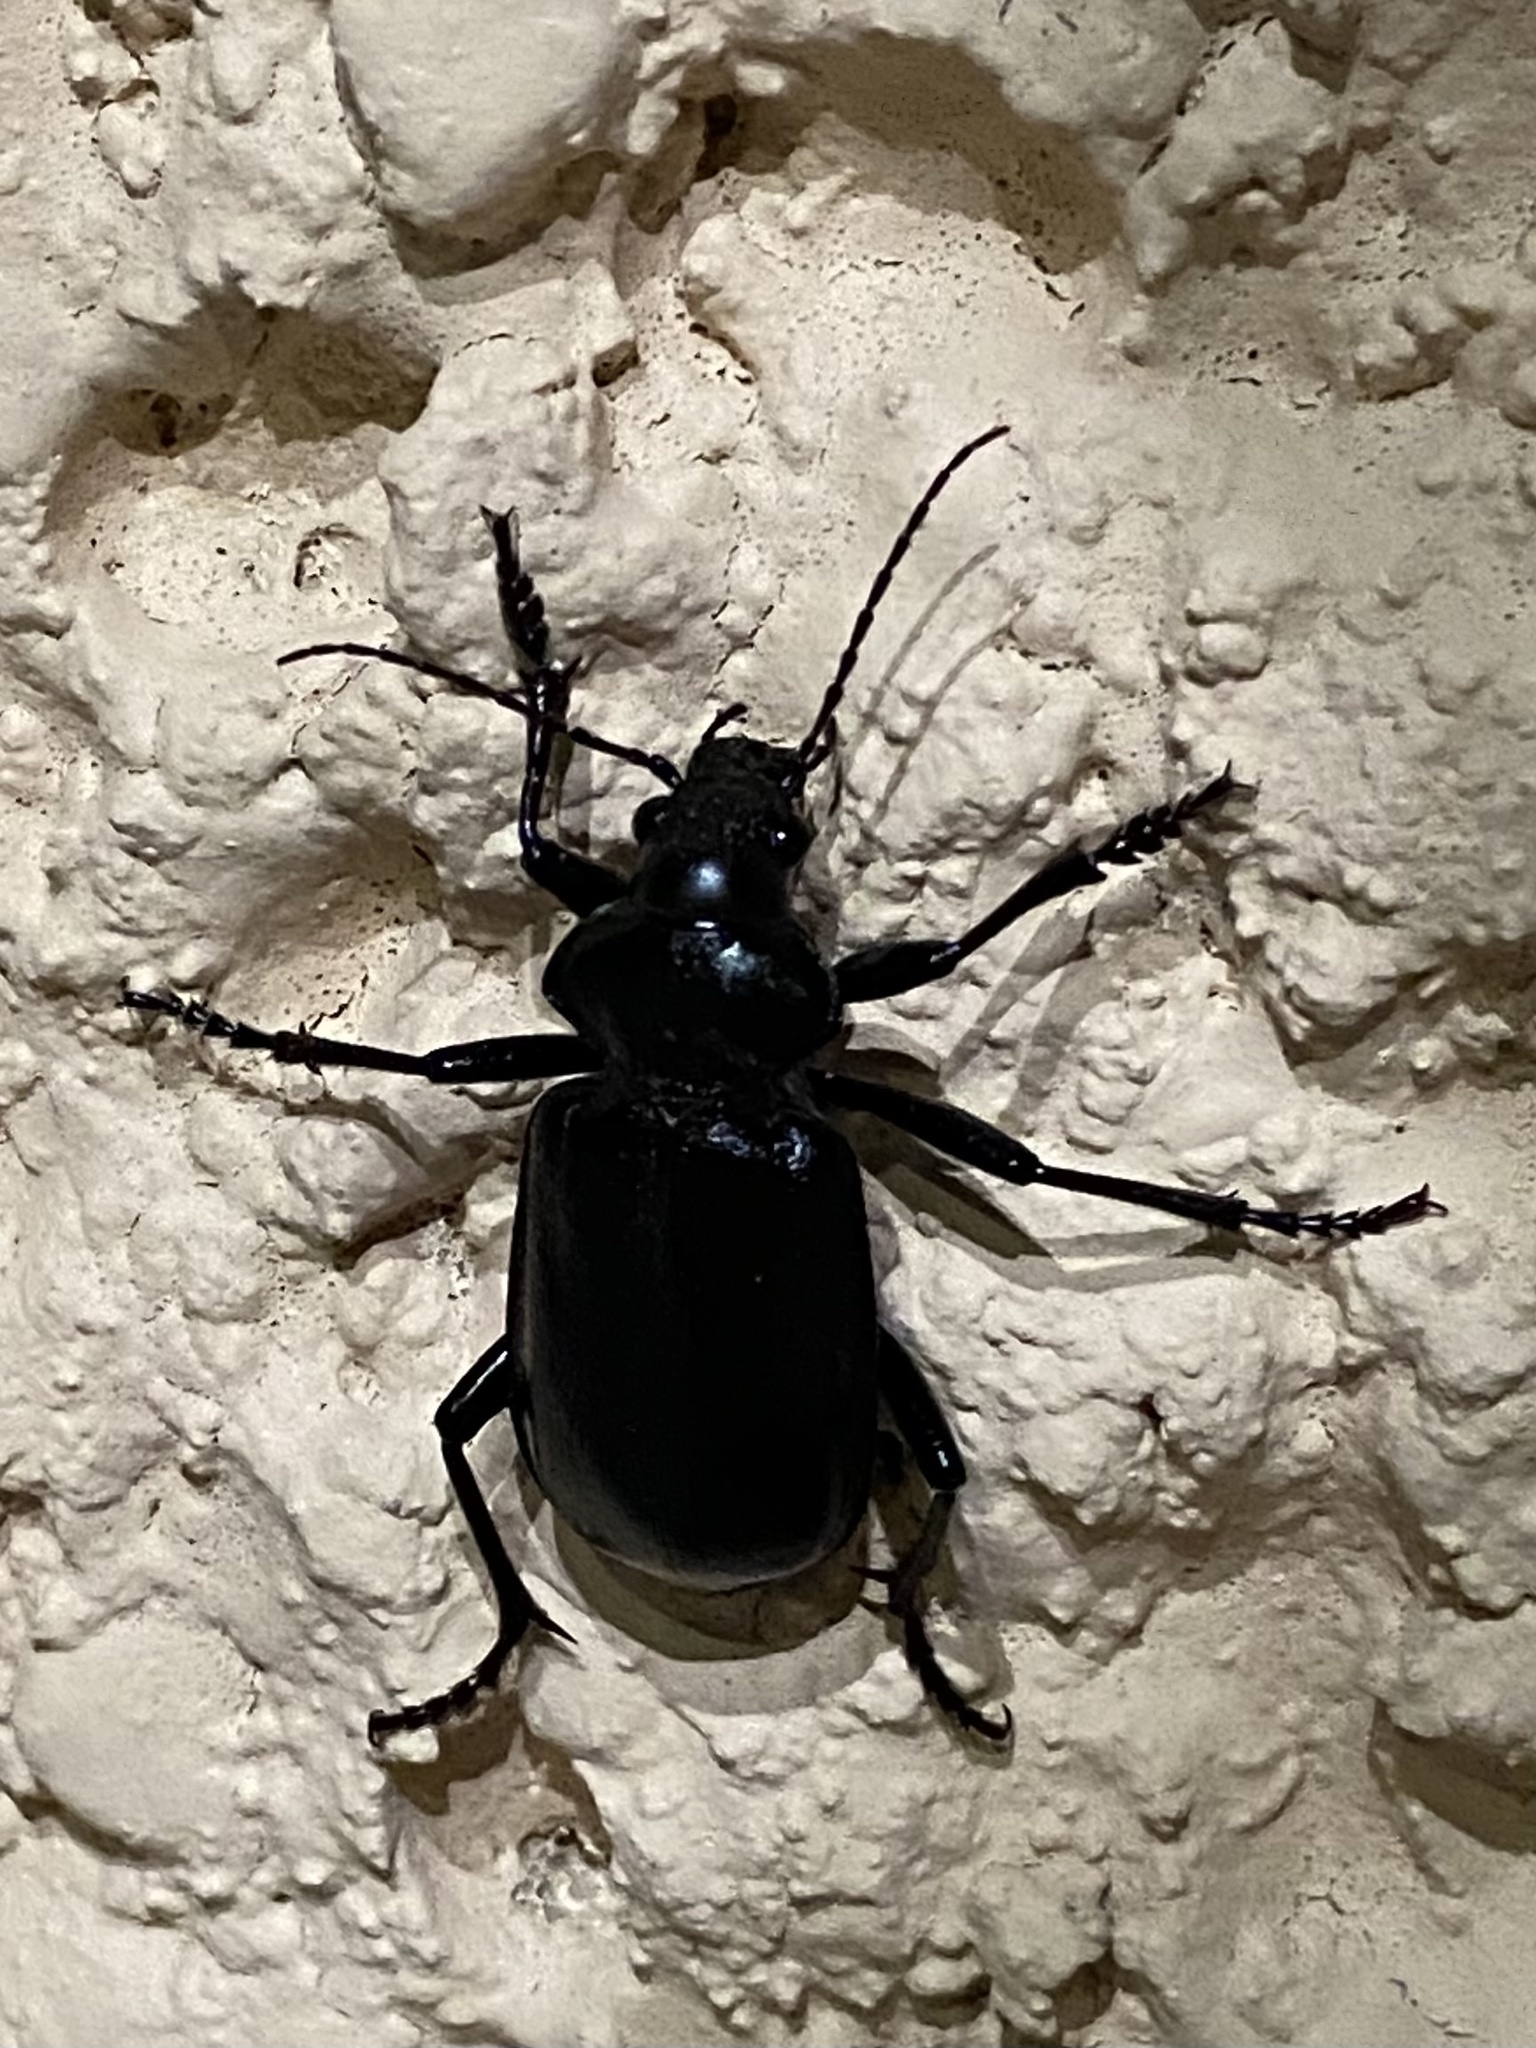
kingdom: Animalia
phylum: Arthropoda
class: Insecta
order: Coleoptera
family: Carabidae
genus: Calosoma
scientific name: Calosoma prominens
